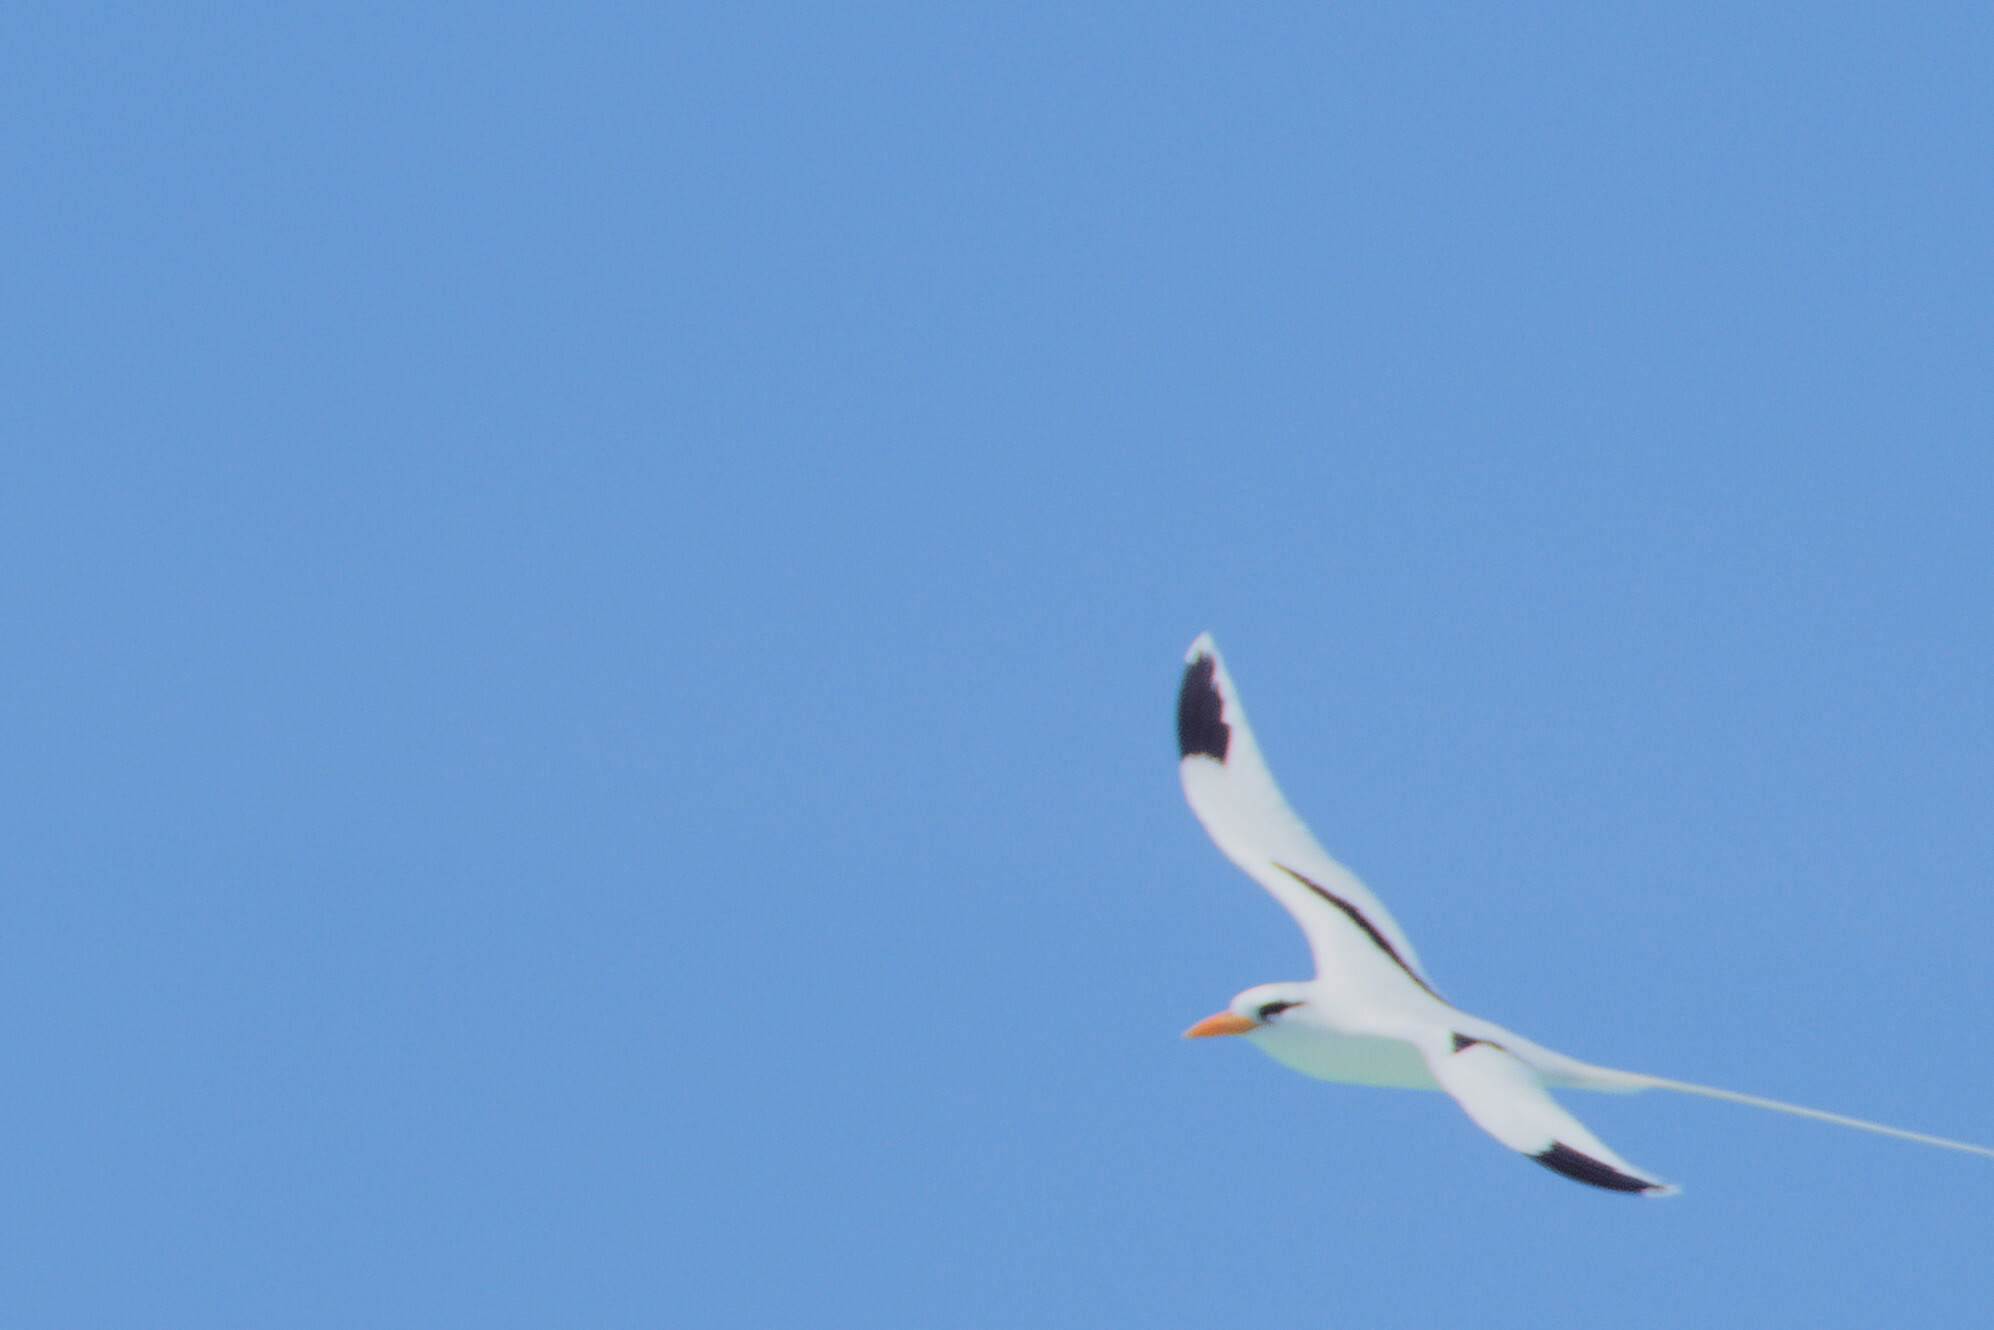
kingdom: Animalia
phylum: Chordata
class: Aves
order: Phaethontiformes
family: Phaethontidae
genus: Phaethon
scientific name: Phaethon lepturus
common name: White-tailed tropicbird
